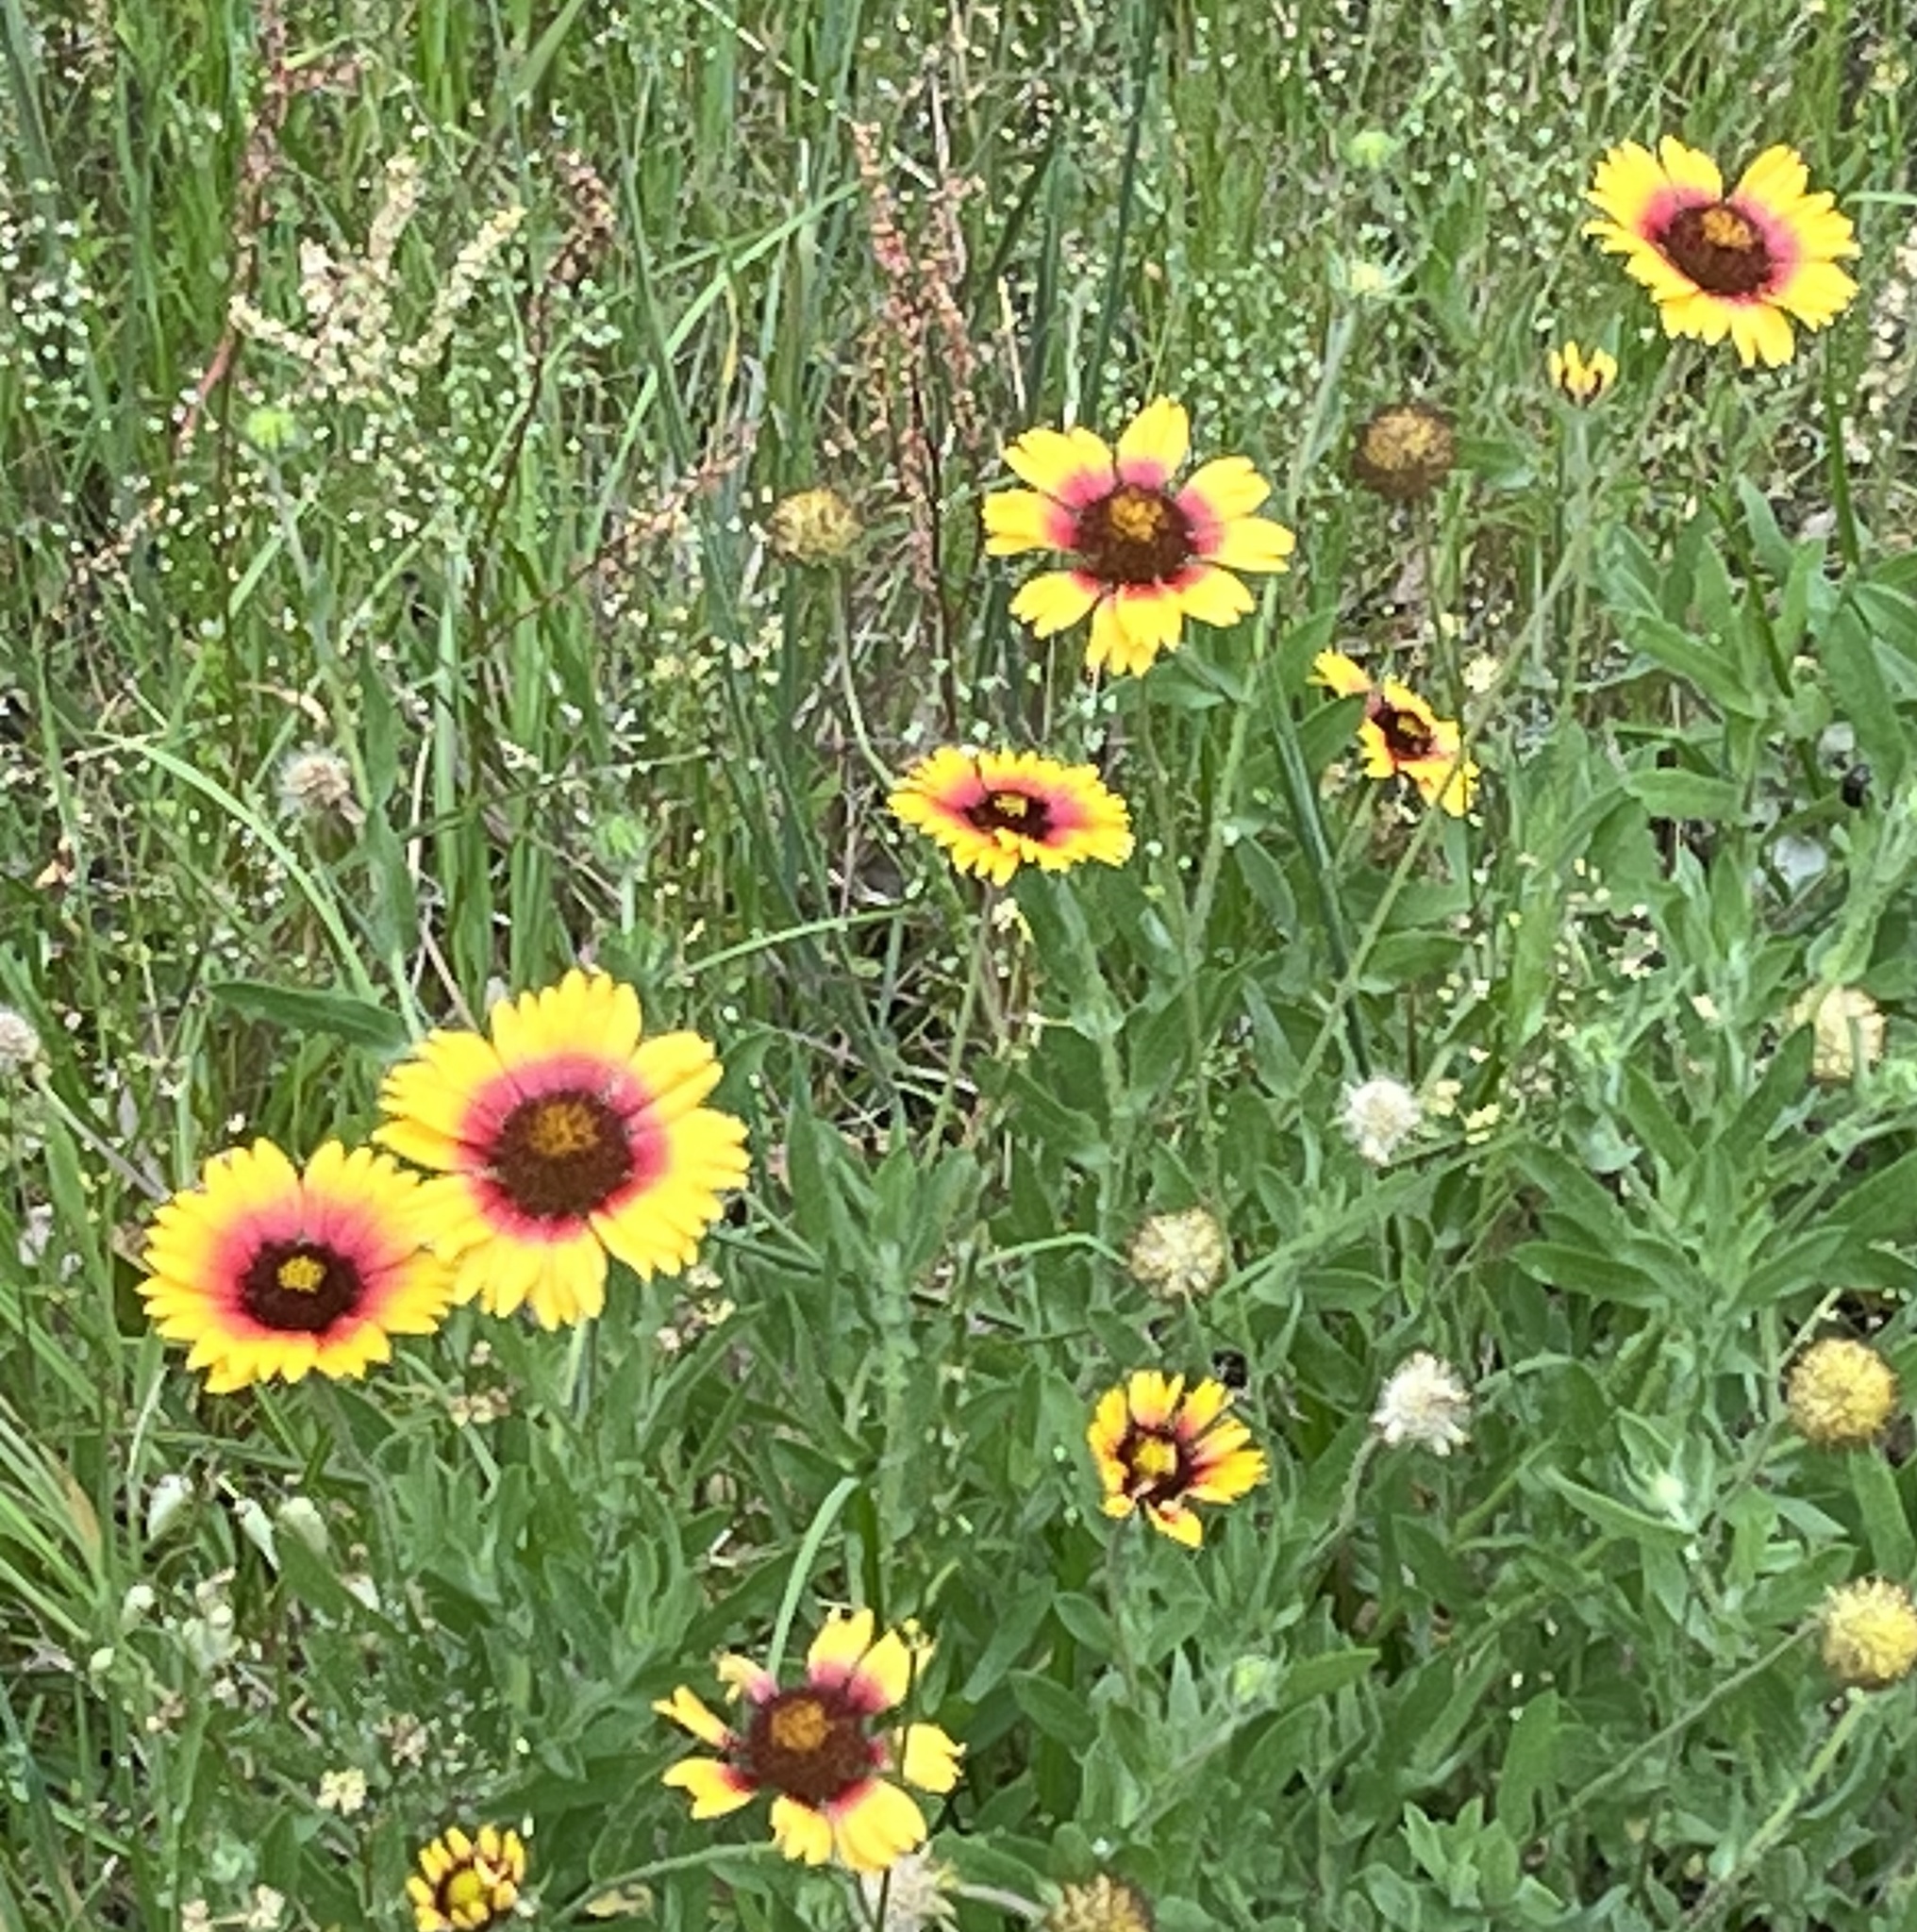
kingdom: Plantae
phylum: Tracheophyta
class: Magnoliopsida
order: Asterales
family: Asteraceae
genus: Gaillardia
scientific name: Gaillardia pulchella
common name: Firewheel
